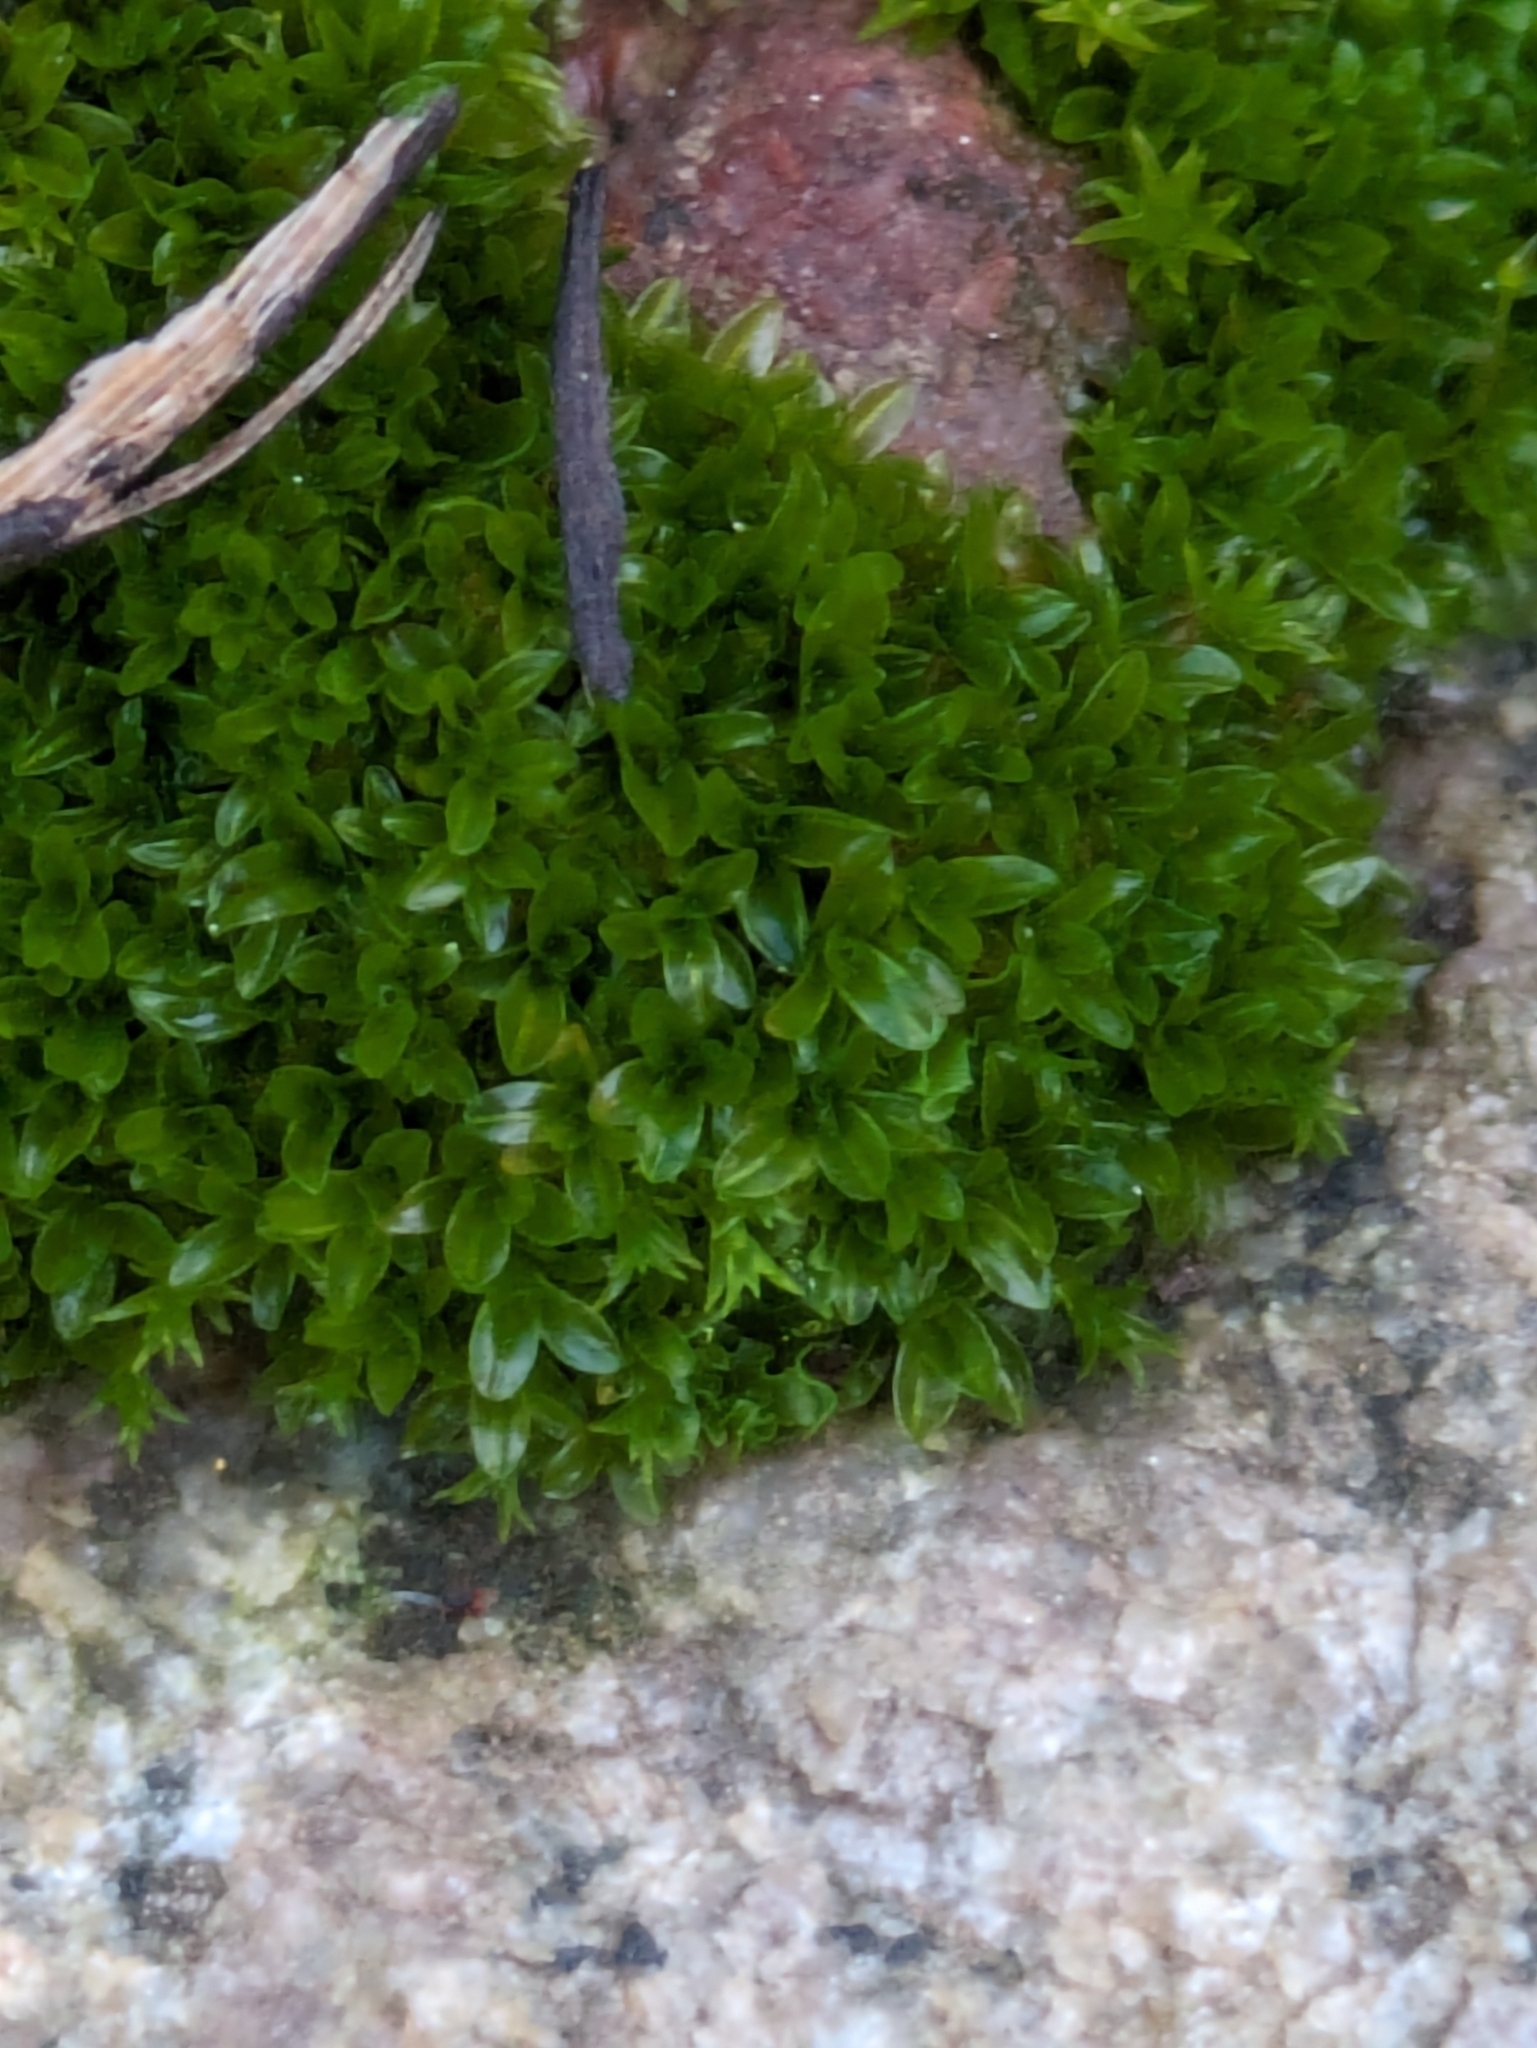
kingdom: Plantae
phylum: Bryophyta
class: Bryopsida
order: Pottiales
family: Pottiaceae
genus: Tortula
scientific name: Tortula bolanderi
